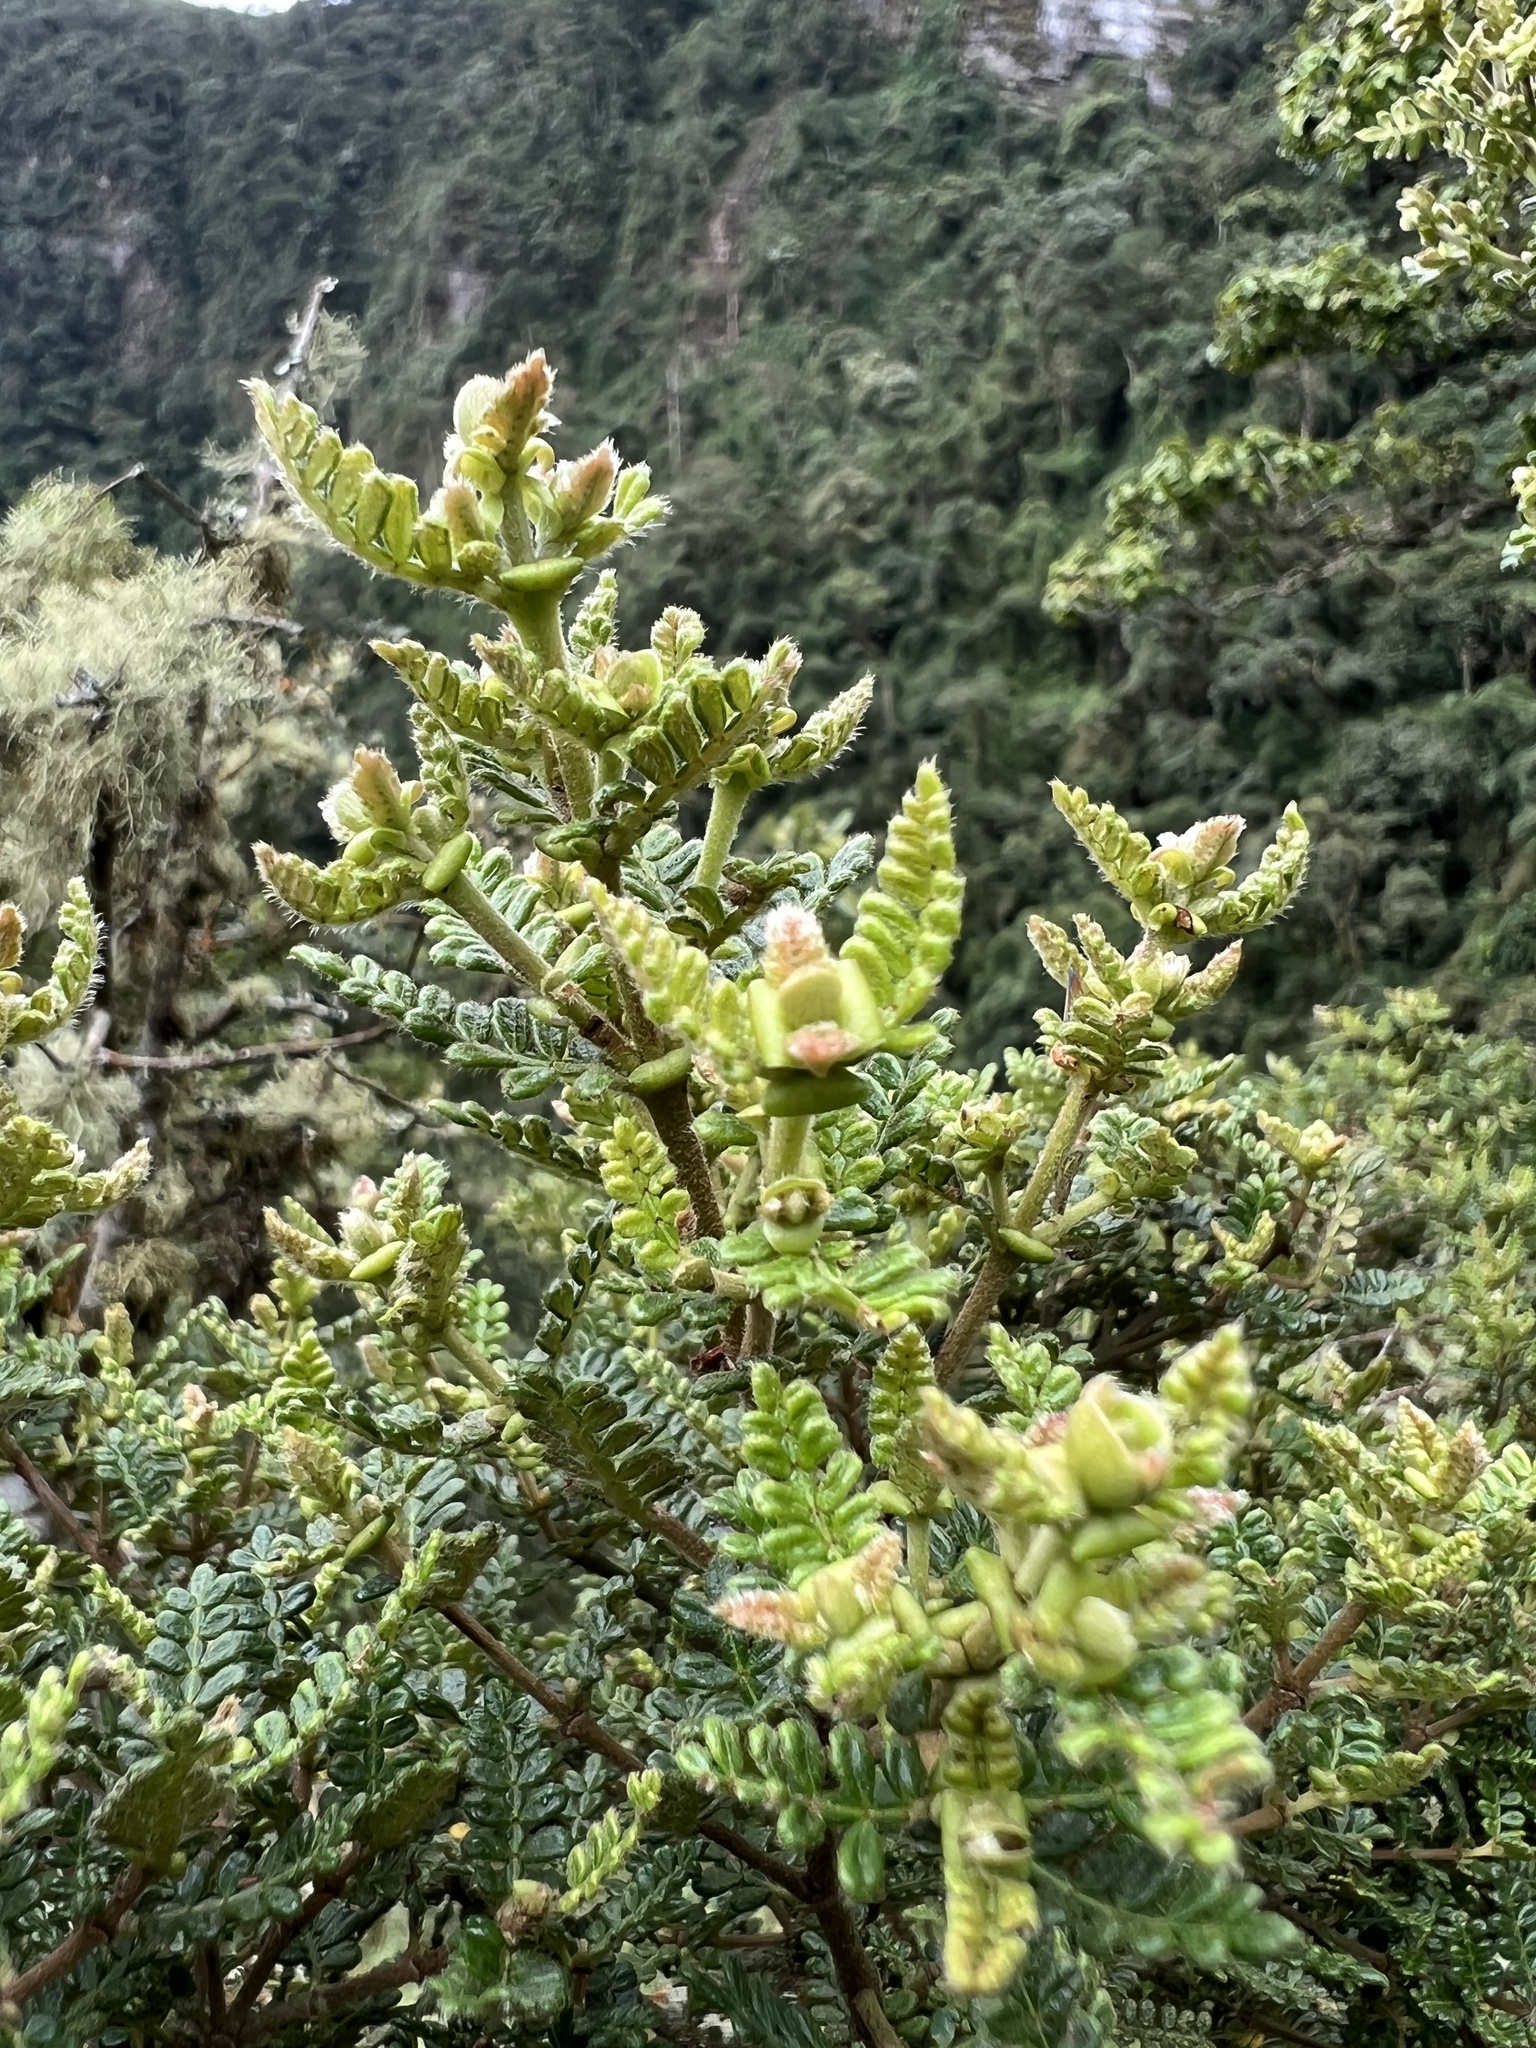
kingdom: Plantae
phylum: Tracheophyta
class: Magnoliopsida
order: Oxalidales
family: Cunoniaceae
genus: Weinmannia
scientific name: Weinmannia tomentosa
